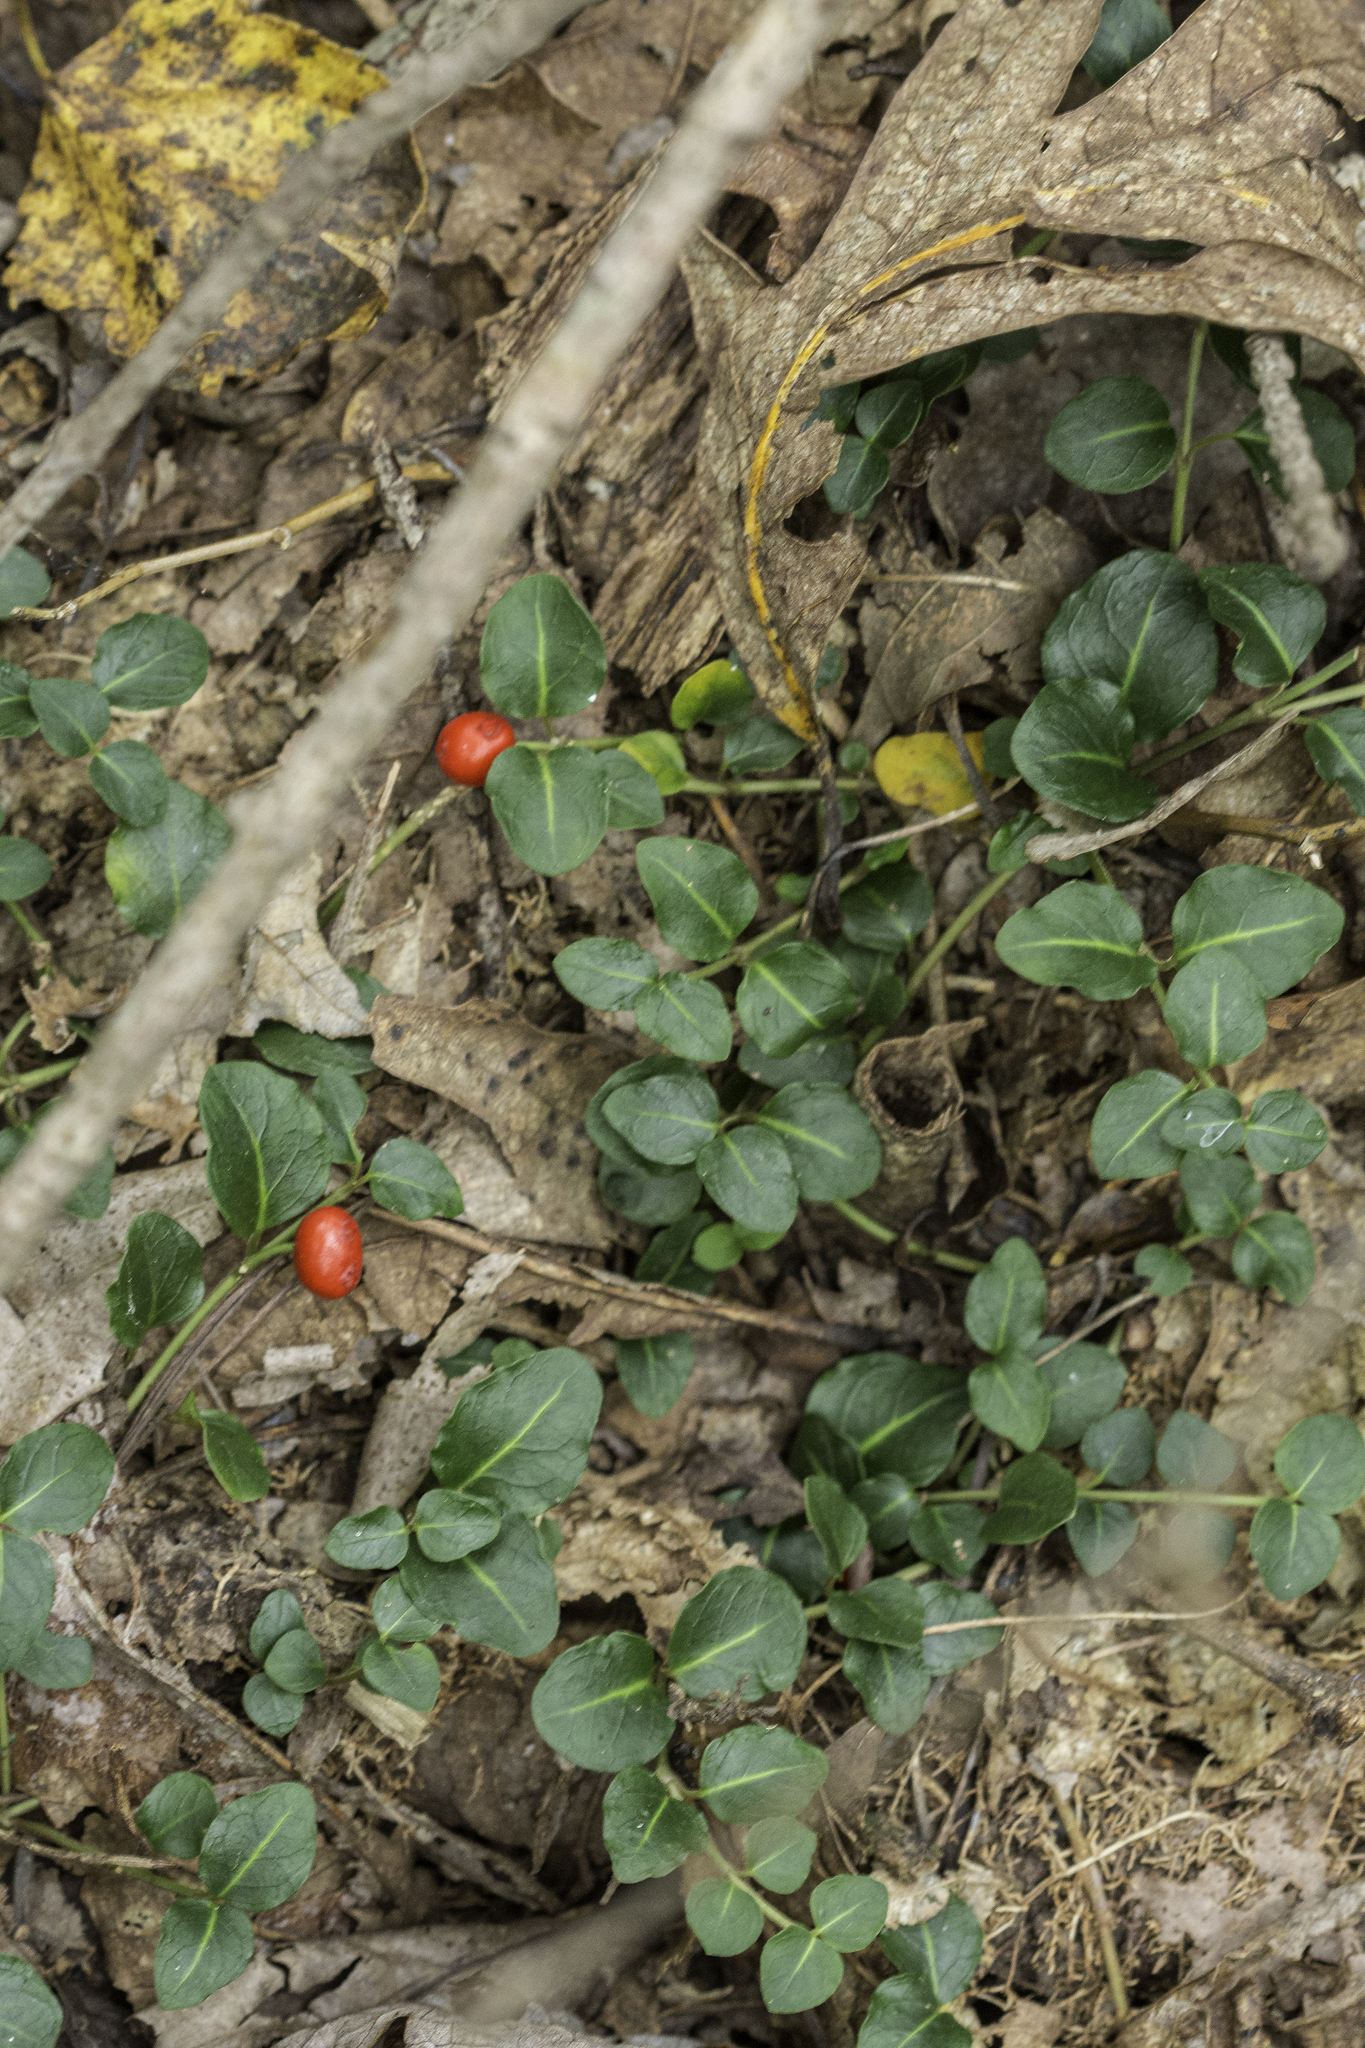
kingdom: Plantae
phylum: Tracheophyta
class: Magnoliopsida
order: Gentianales
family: Rubiaceae
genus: Mitchella
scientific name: Mitchella repens
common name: Partridge-berry
